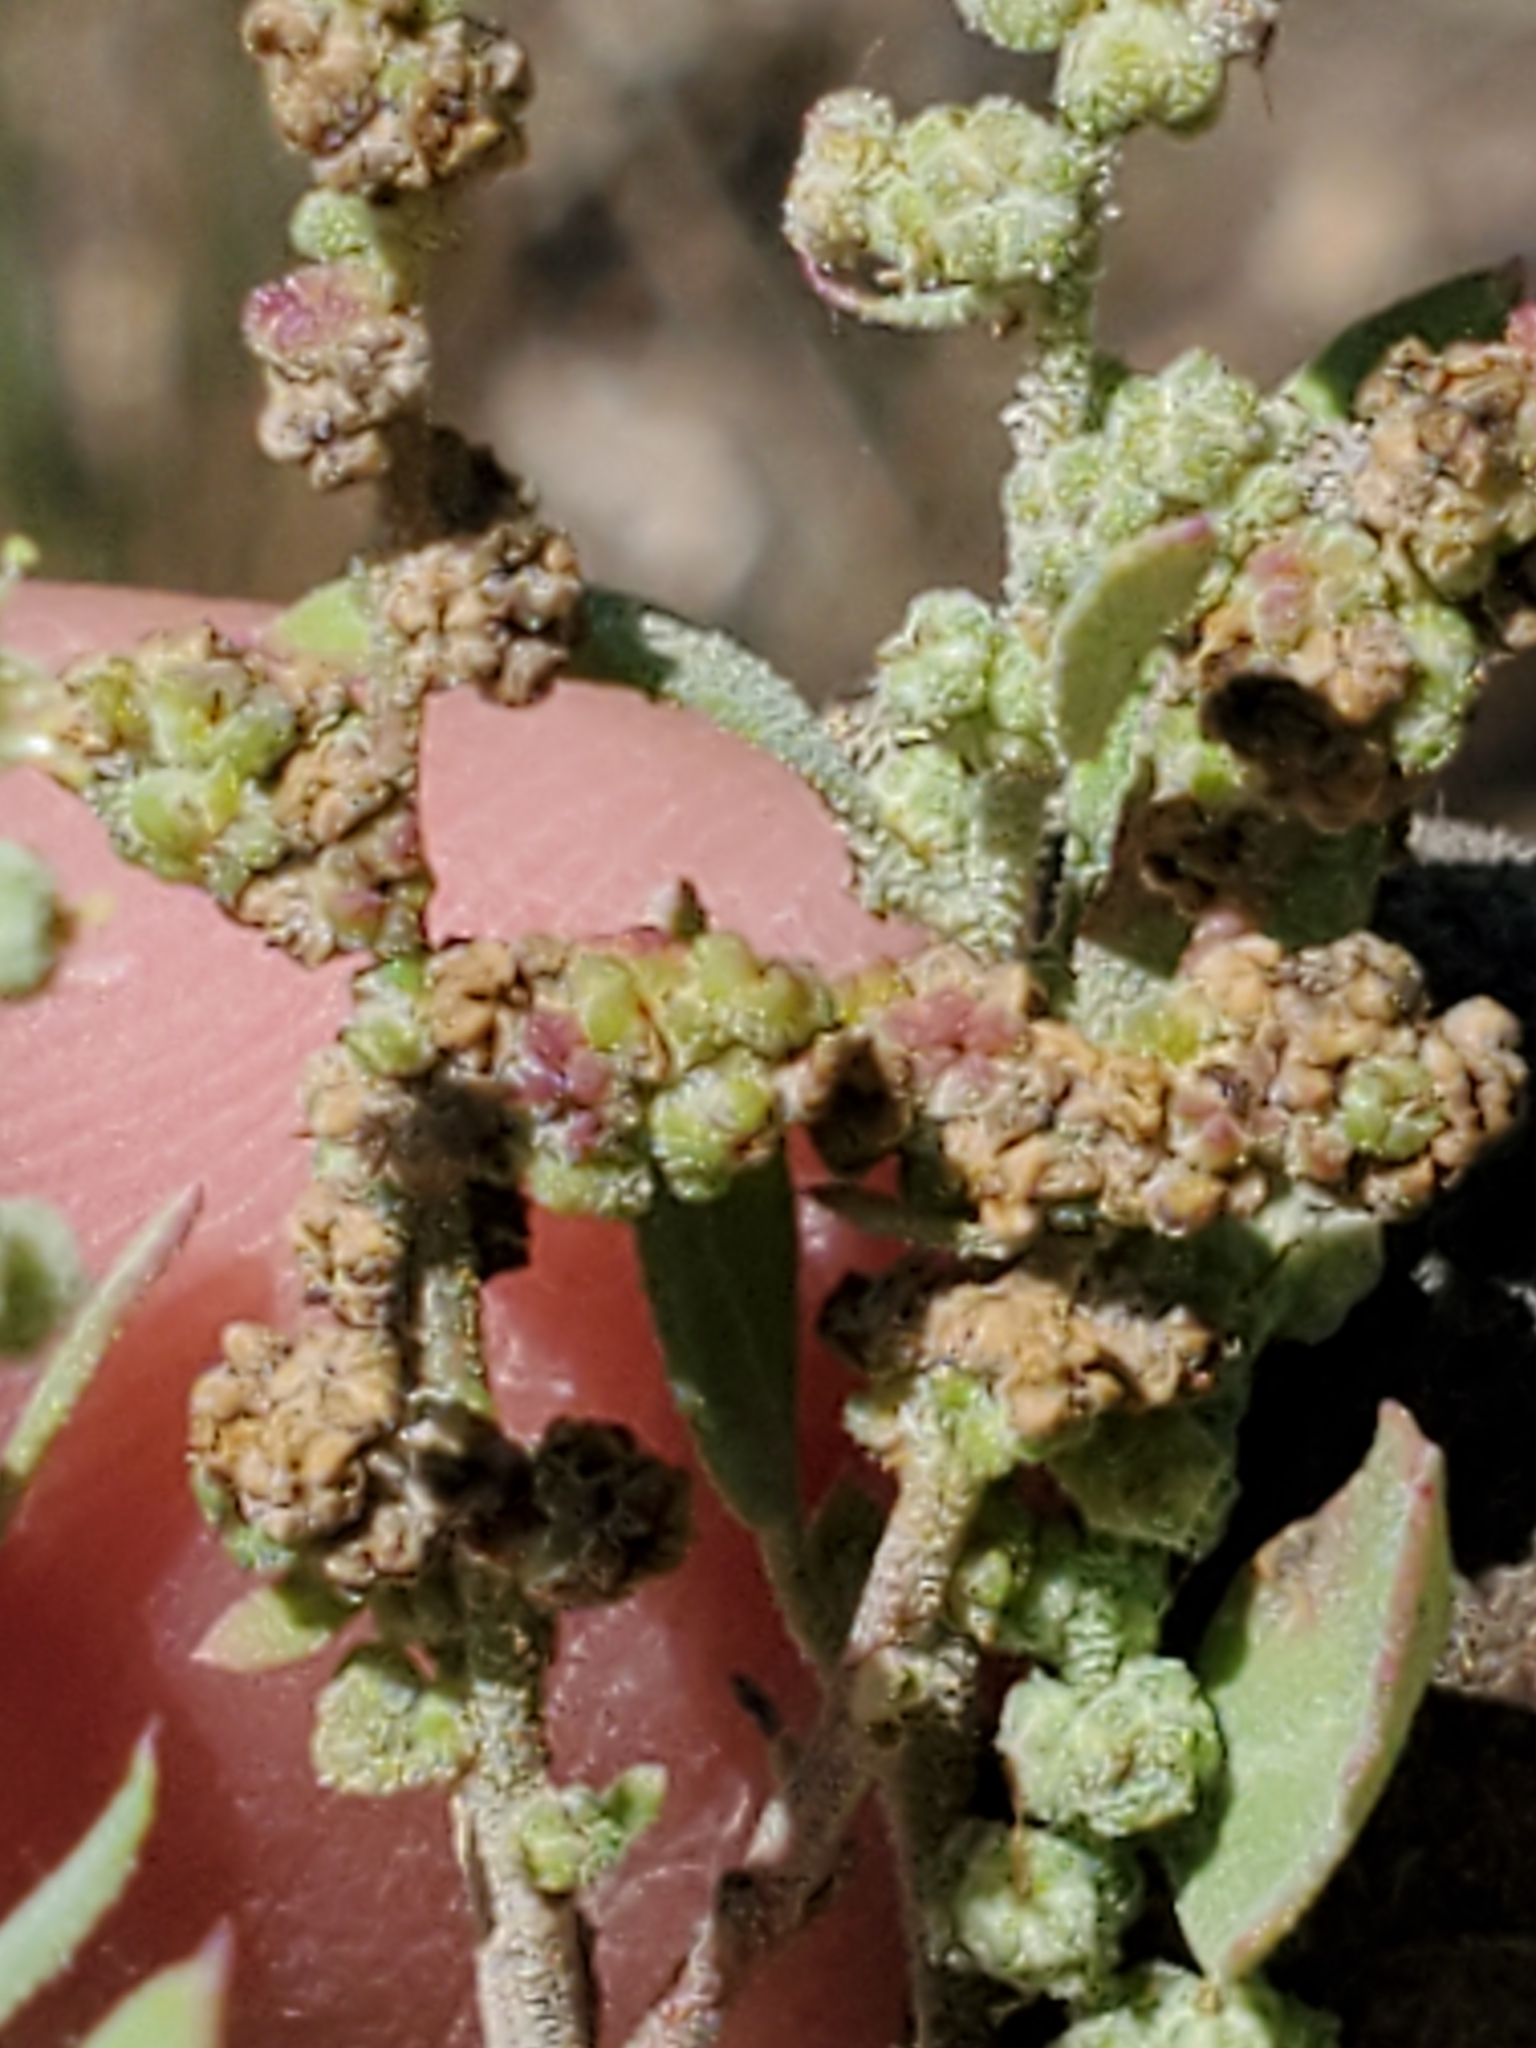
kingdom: Plantae
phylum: Tracheophyta
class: Magnoliopsida
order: Caryophyllales
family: Amaranthaceae
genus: Chenopodium
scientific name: Chenopodium album
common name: Fat-hen
